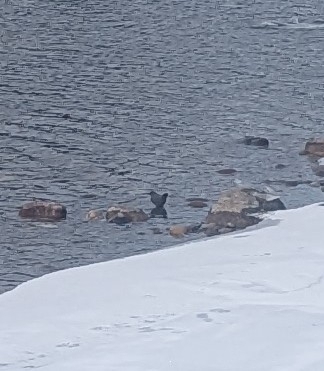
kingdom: Animalia
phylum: Chordata
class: Aves
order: Passeriformes
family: Cinclidae
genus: Cinclus
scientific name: Cinclus mexicanus
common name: American dipper
